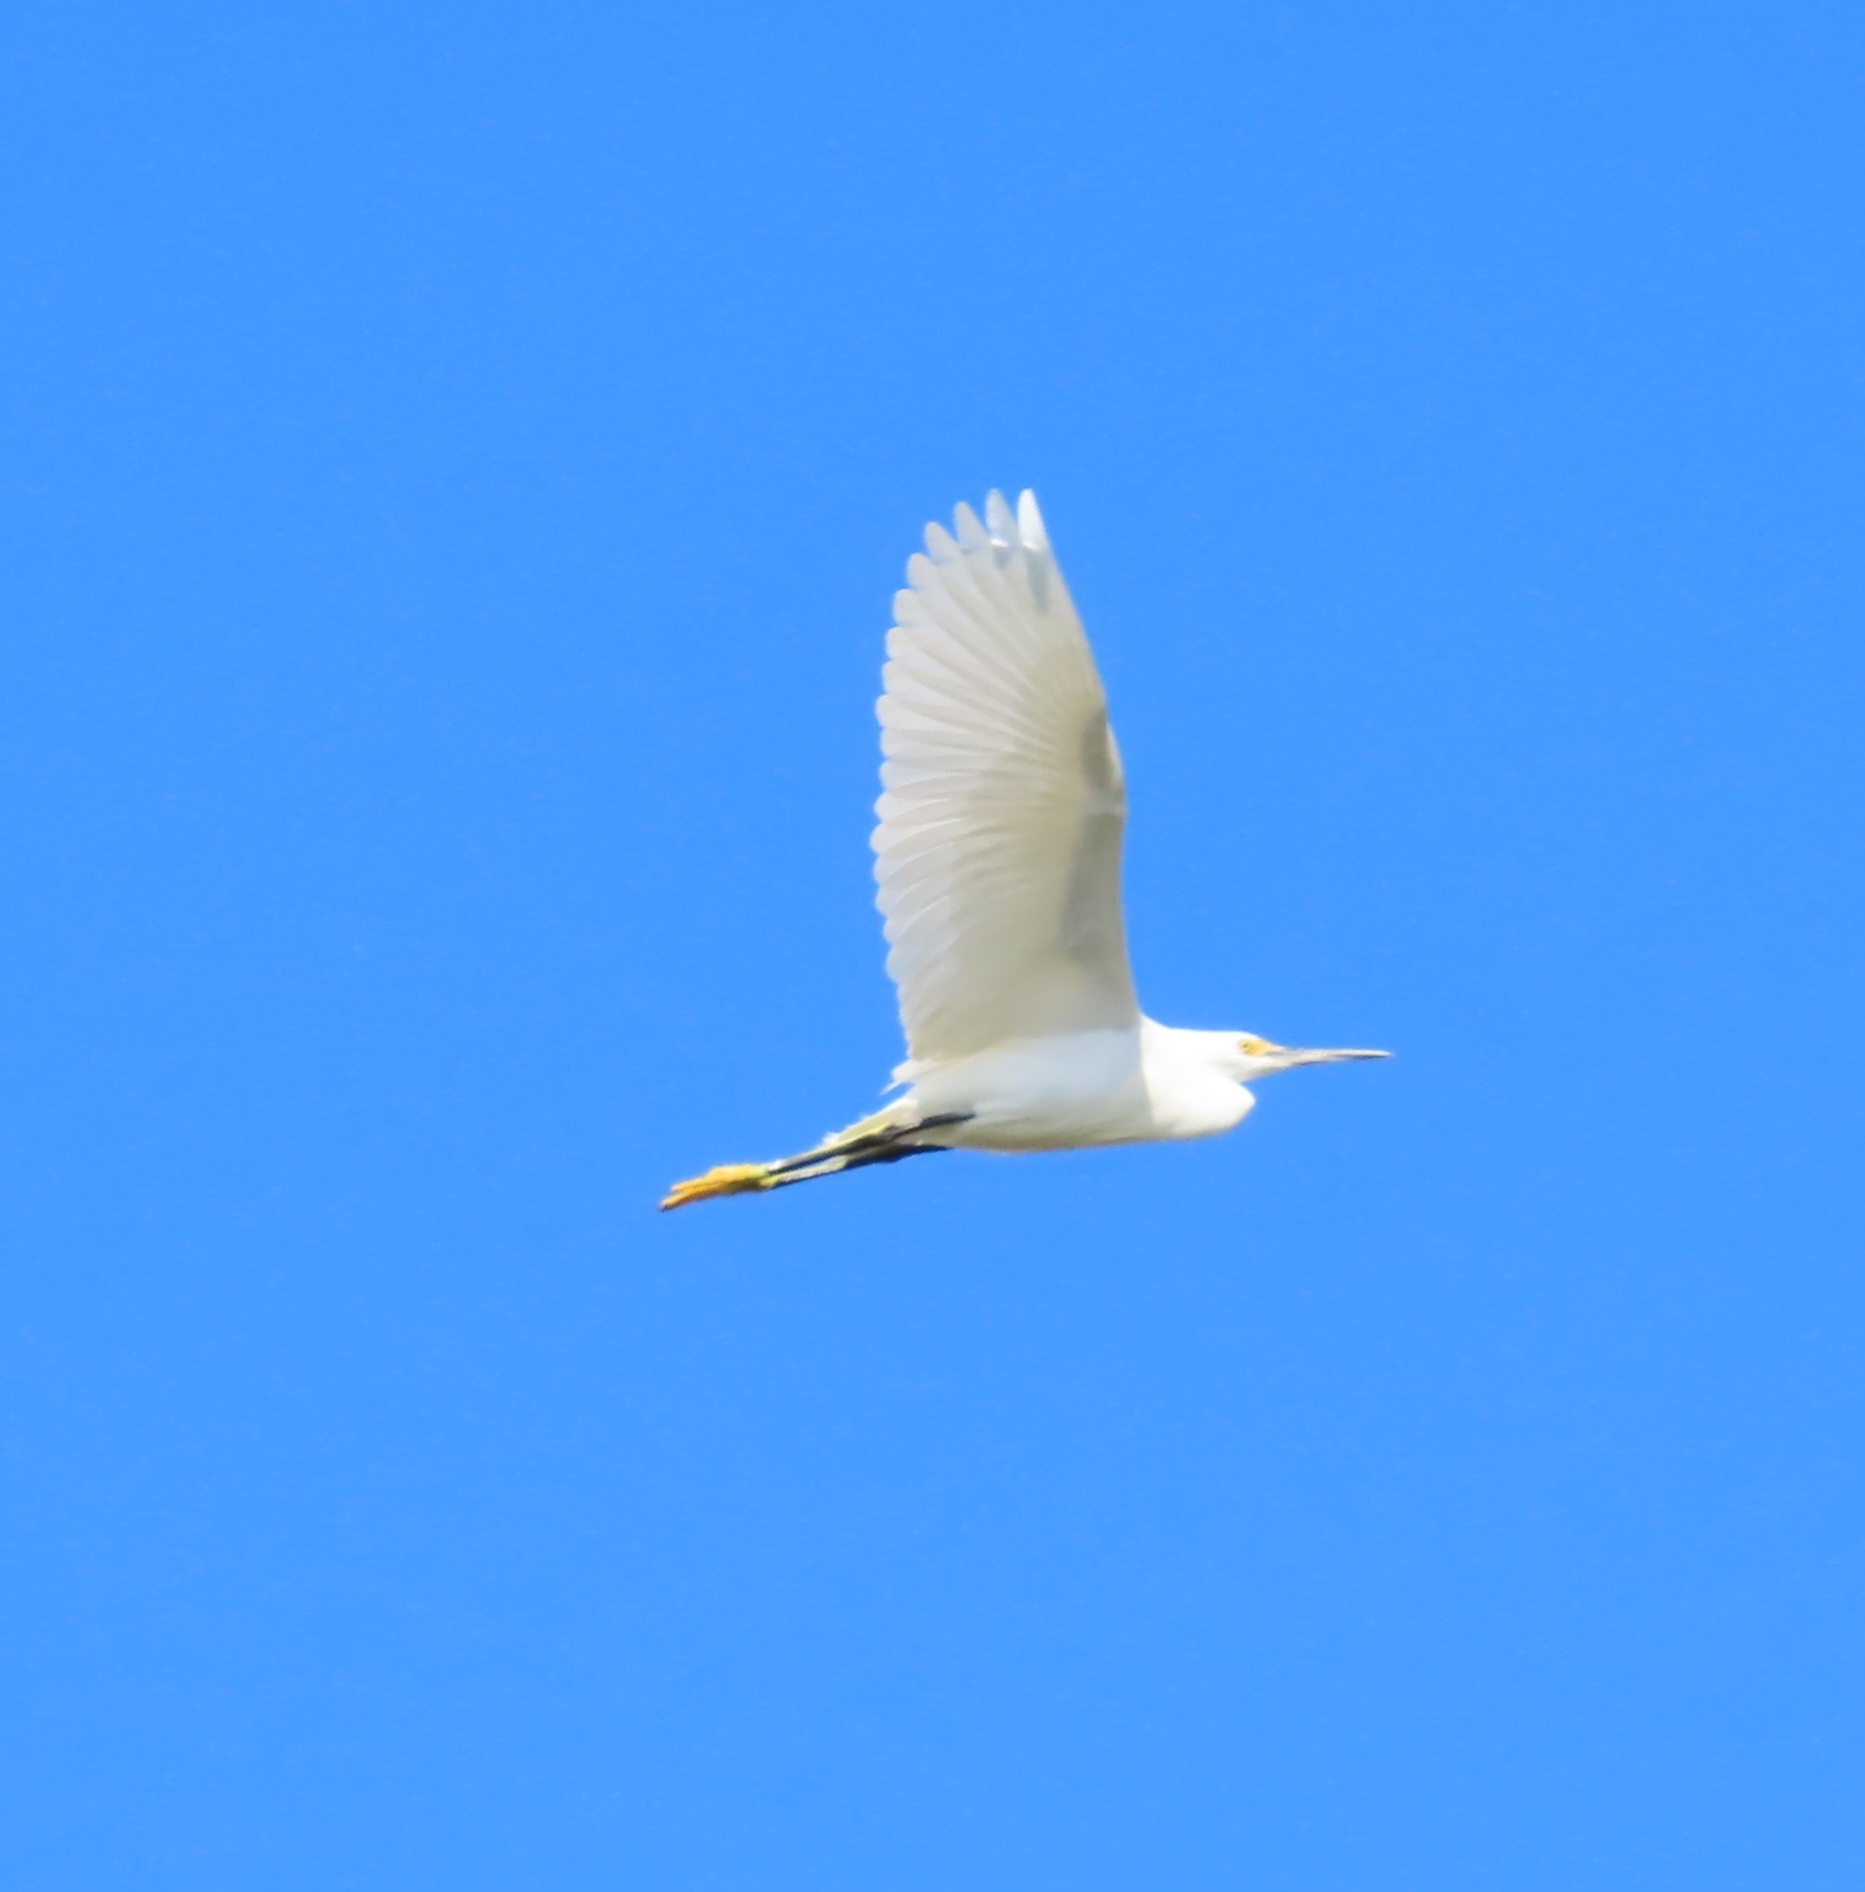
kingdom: Animalia
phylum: Chordata
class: Aves
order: Pelecaniformes
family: Ardeidae
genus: Egretta
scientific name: Egretta thula
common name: Snowy egret
